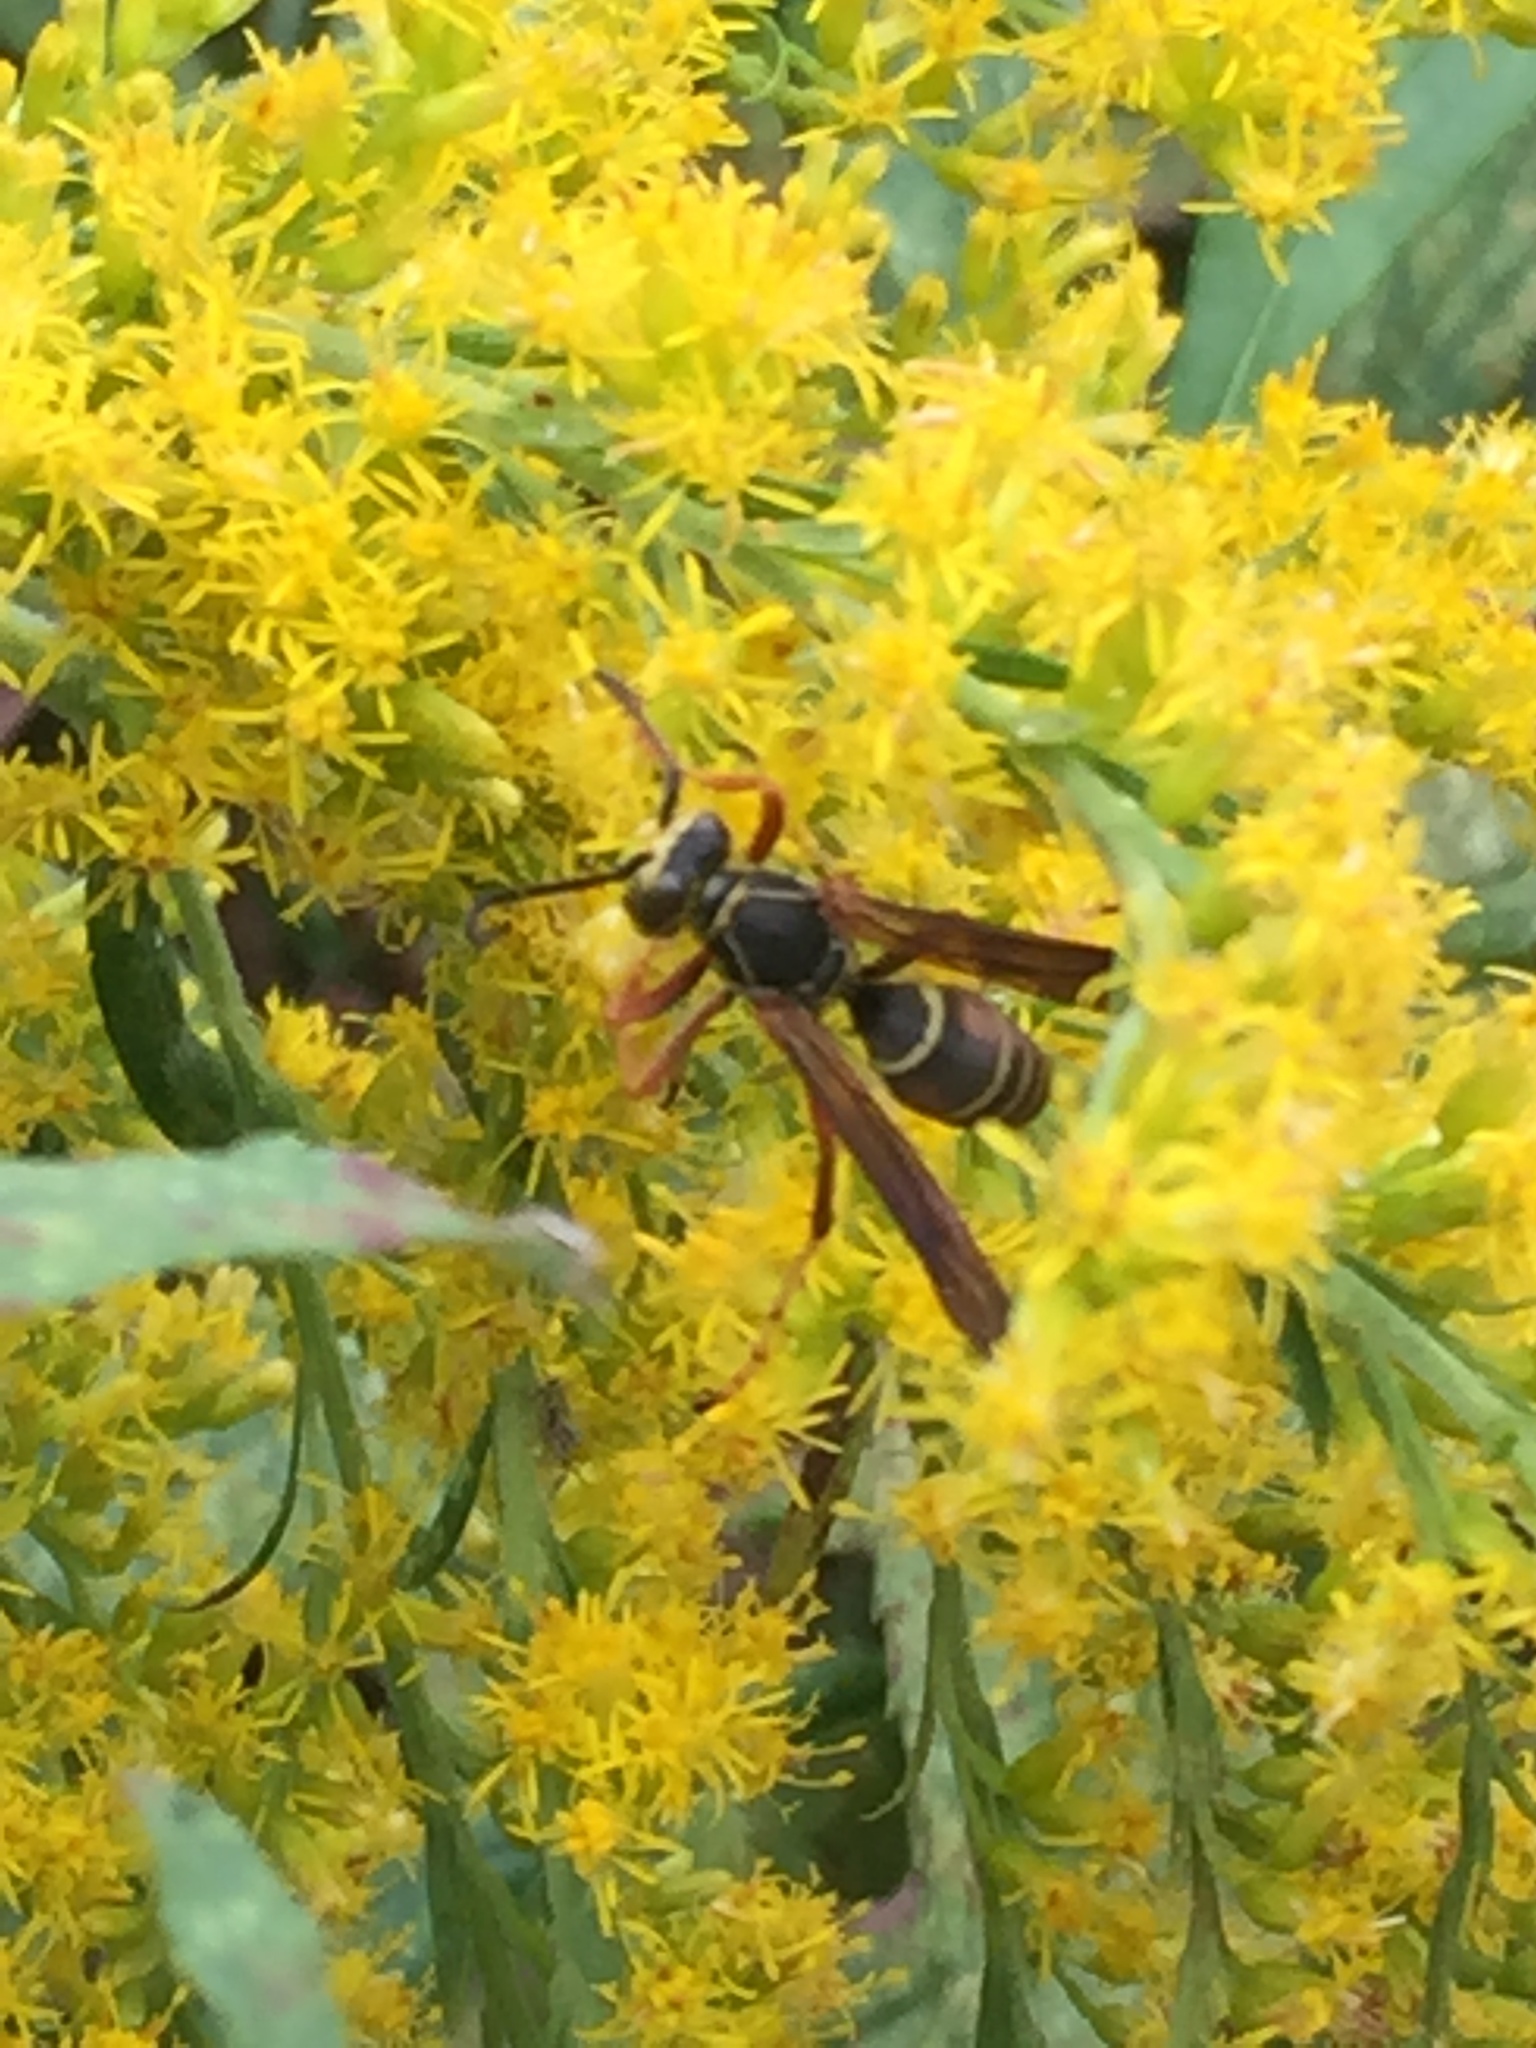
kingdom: Animalia
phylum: Arthropoda
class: Insecta
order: Hymenoptera
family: Eumenidae
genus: Polistes
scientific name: Polistes fuscatus
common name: Dark paper wasp
